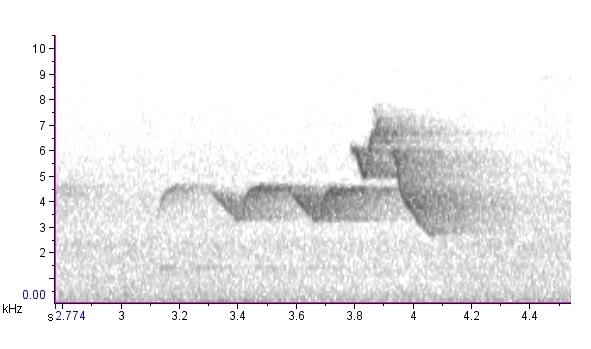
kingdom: Animalia
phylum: Chordata
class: Aves
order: Passeriformes
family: Parulidae
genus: Setophaga
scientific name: Setophaga citrina
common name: Hooded warbler
